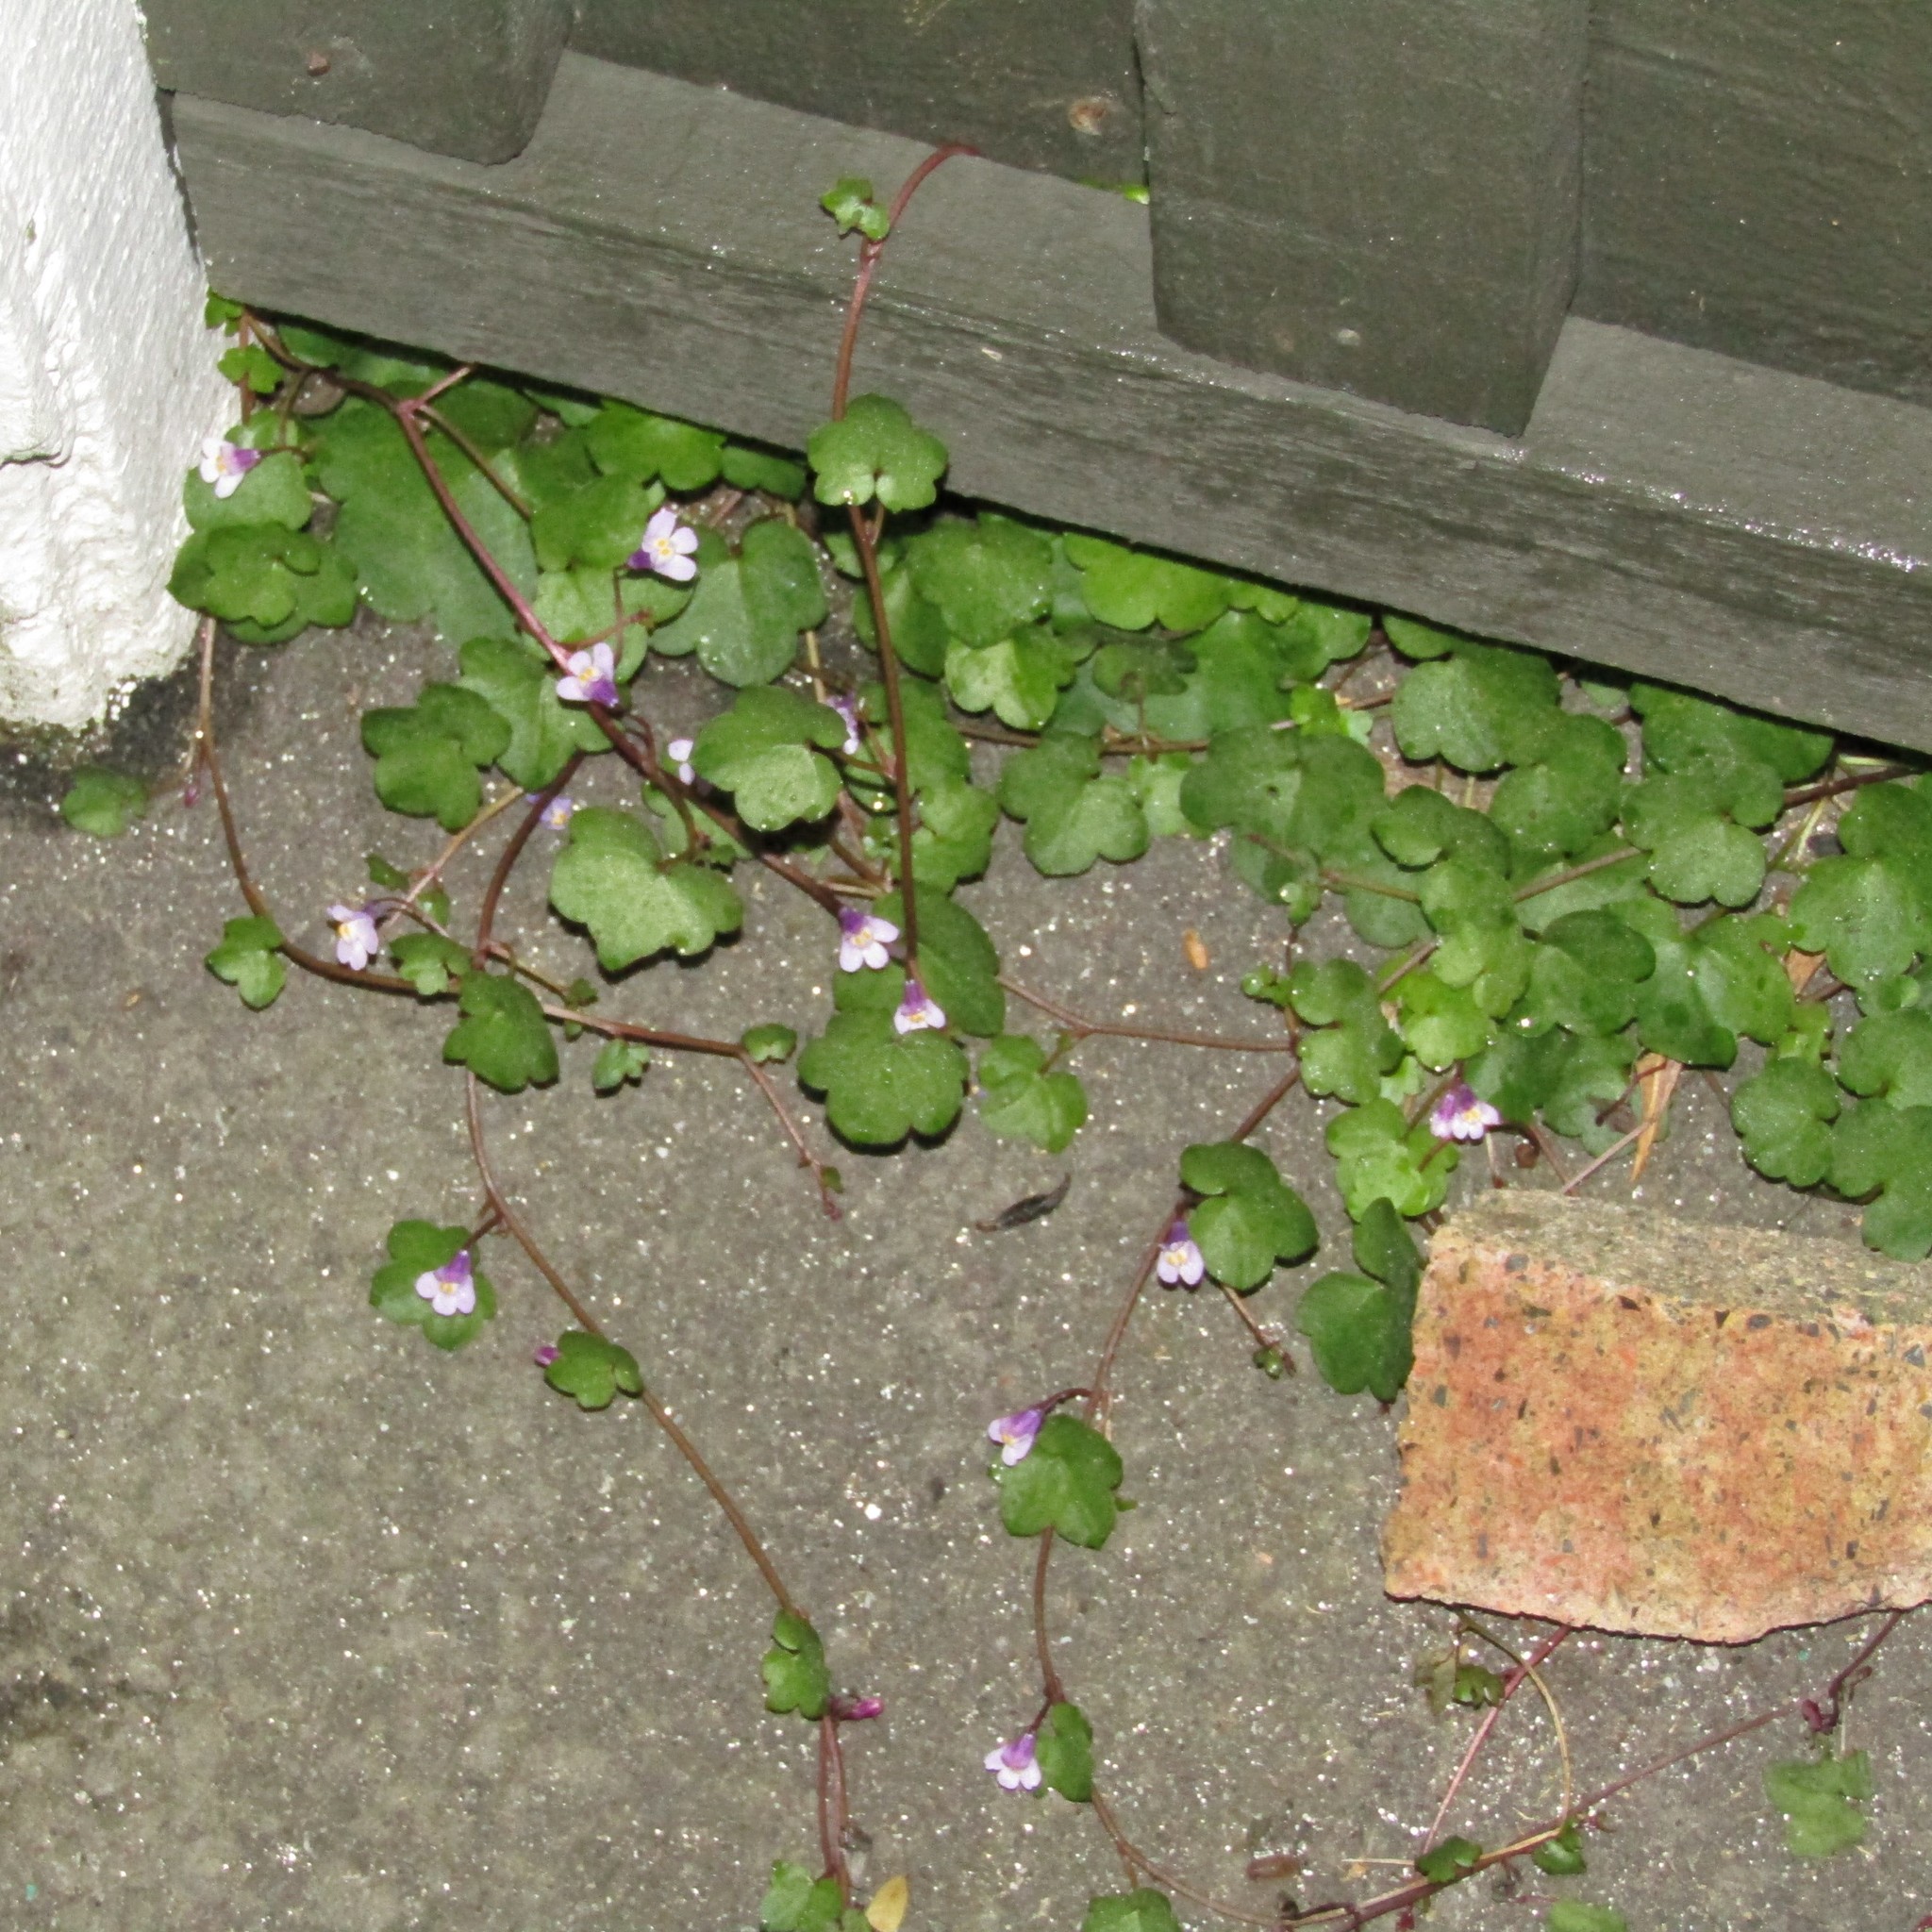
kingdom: Plantae
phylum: Tracheophyta
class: Magnoliopsida
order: Lamiales
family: Plantaginaceae
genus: Cymbalaria
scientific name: Cymbalaria muralis
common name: Ivy-leaved toadflax
